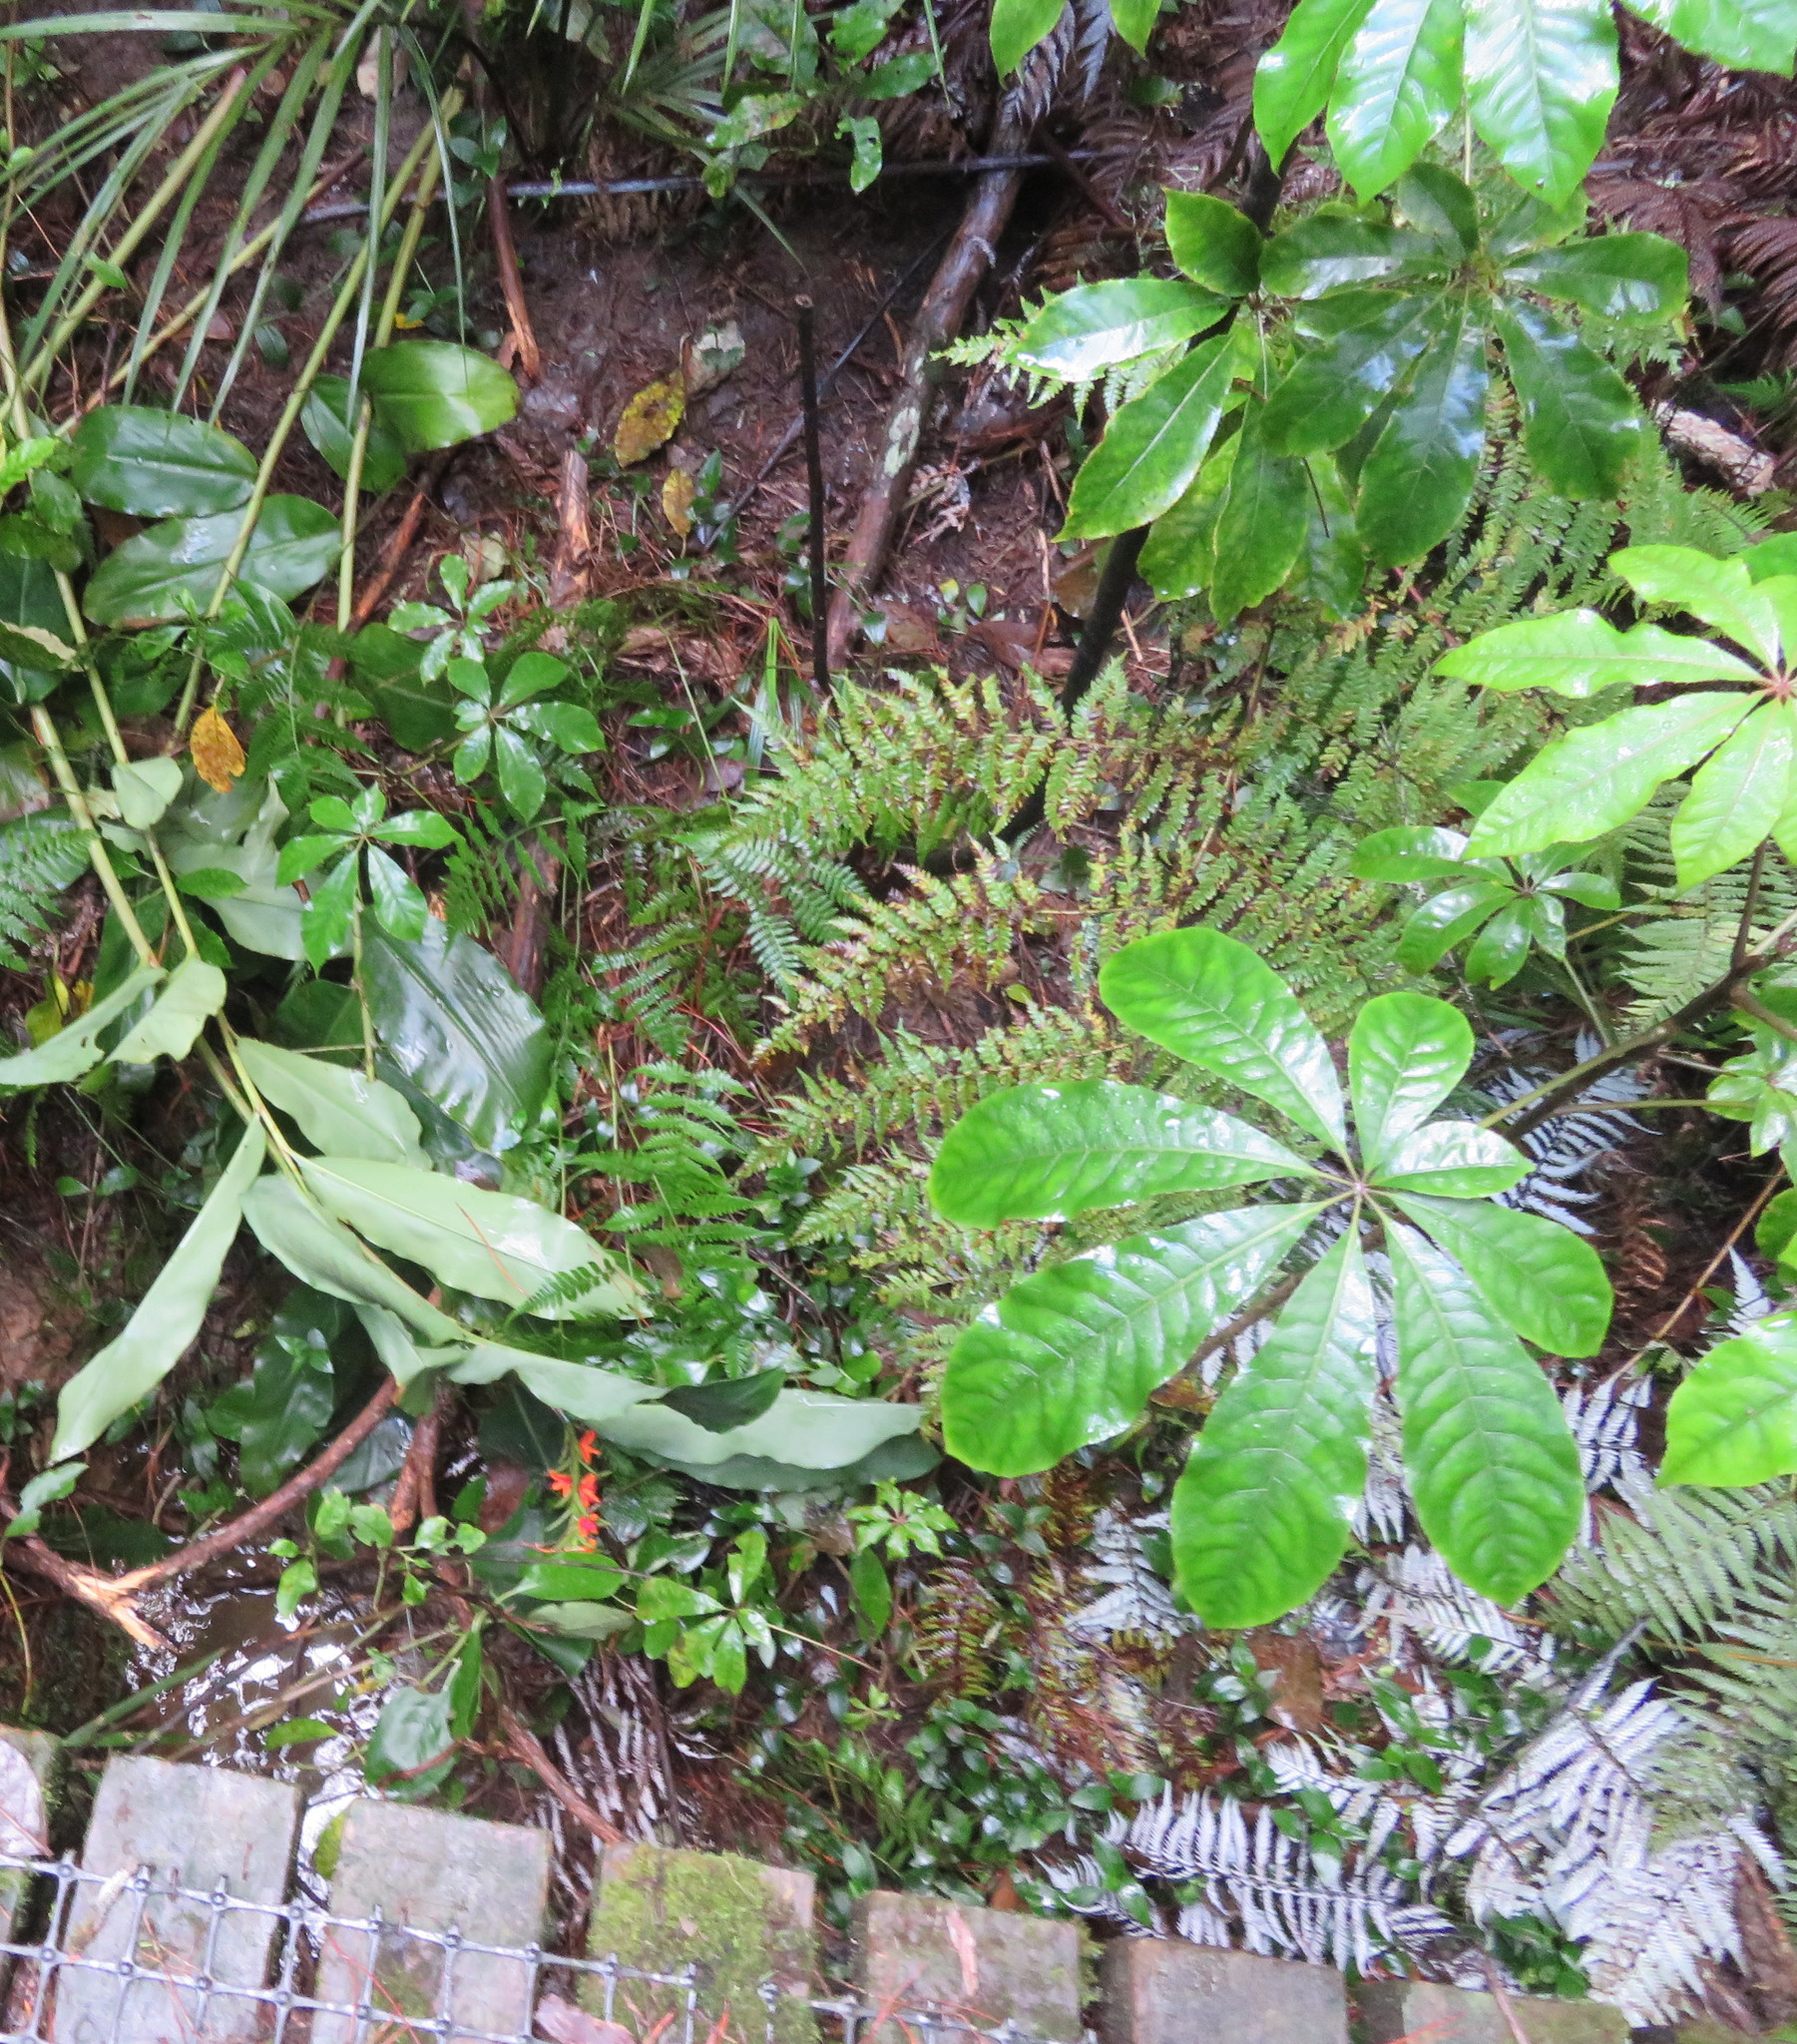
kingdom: Plantae
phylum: Tracheophyta
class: Liliopsida
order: Arecales
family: Arecaceae
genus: Rhopalostylis
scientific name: Rhopalostylis sapida
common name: Feather-duster palm
